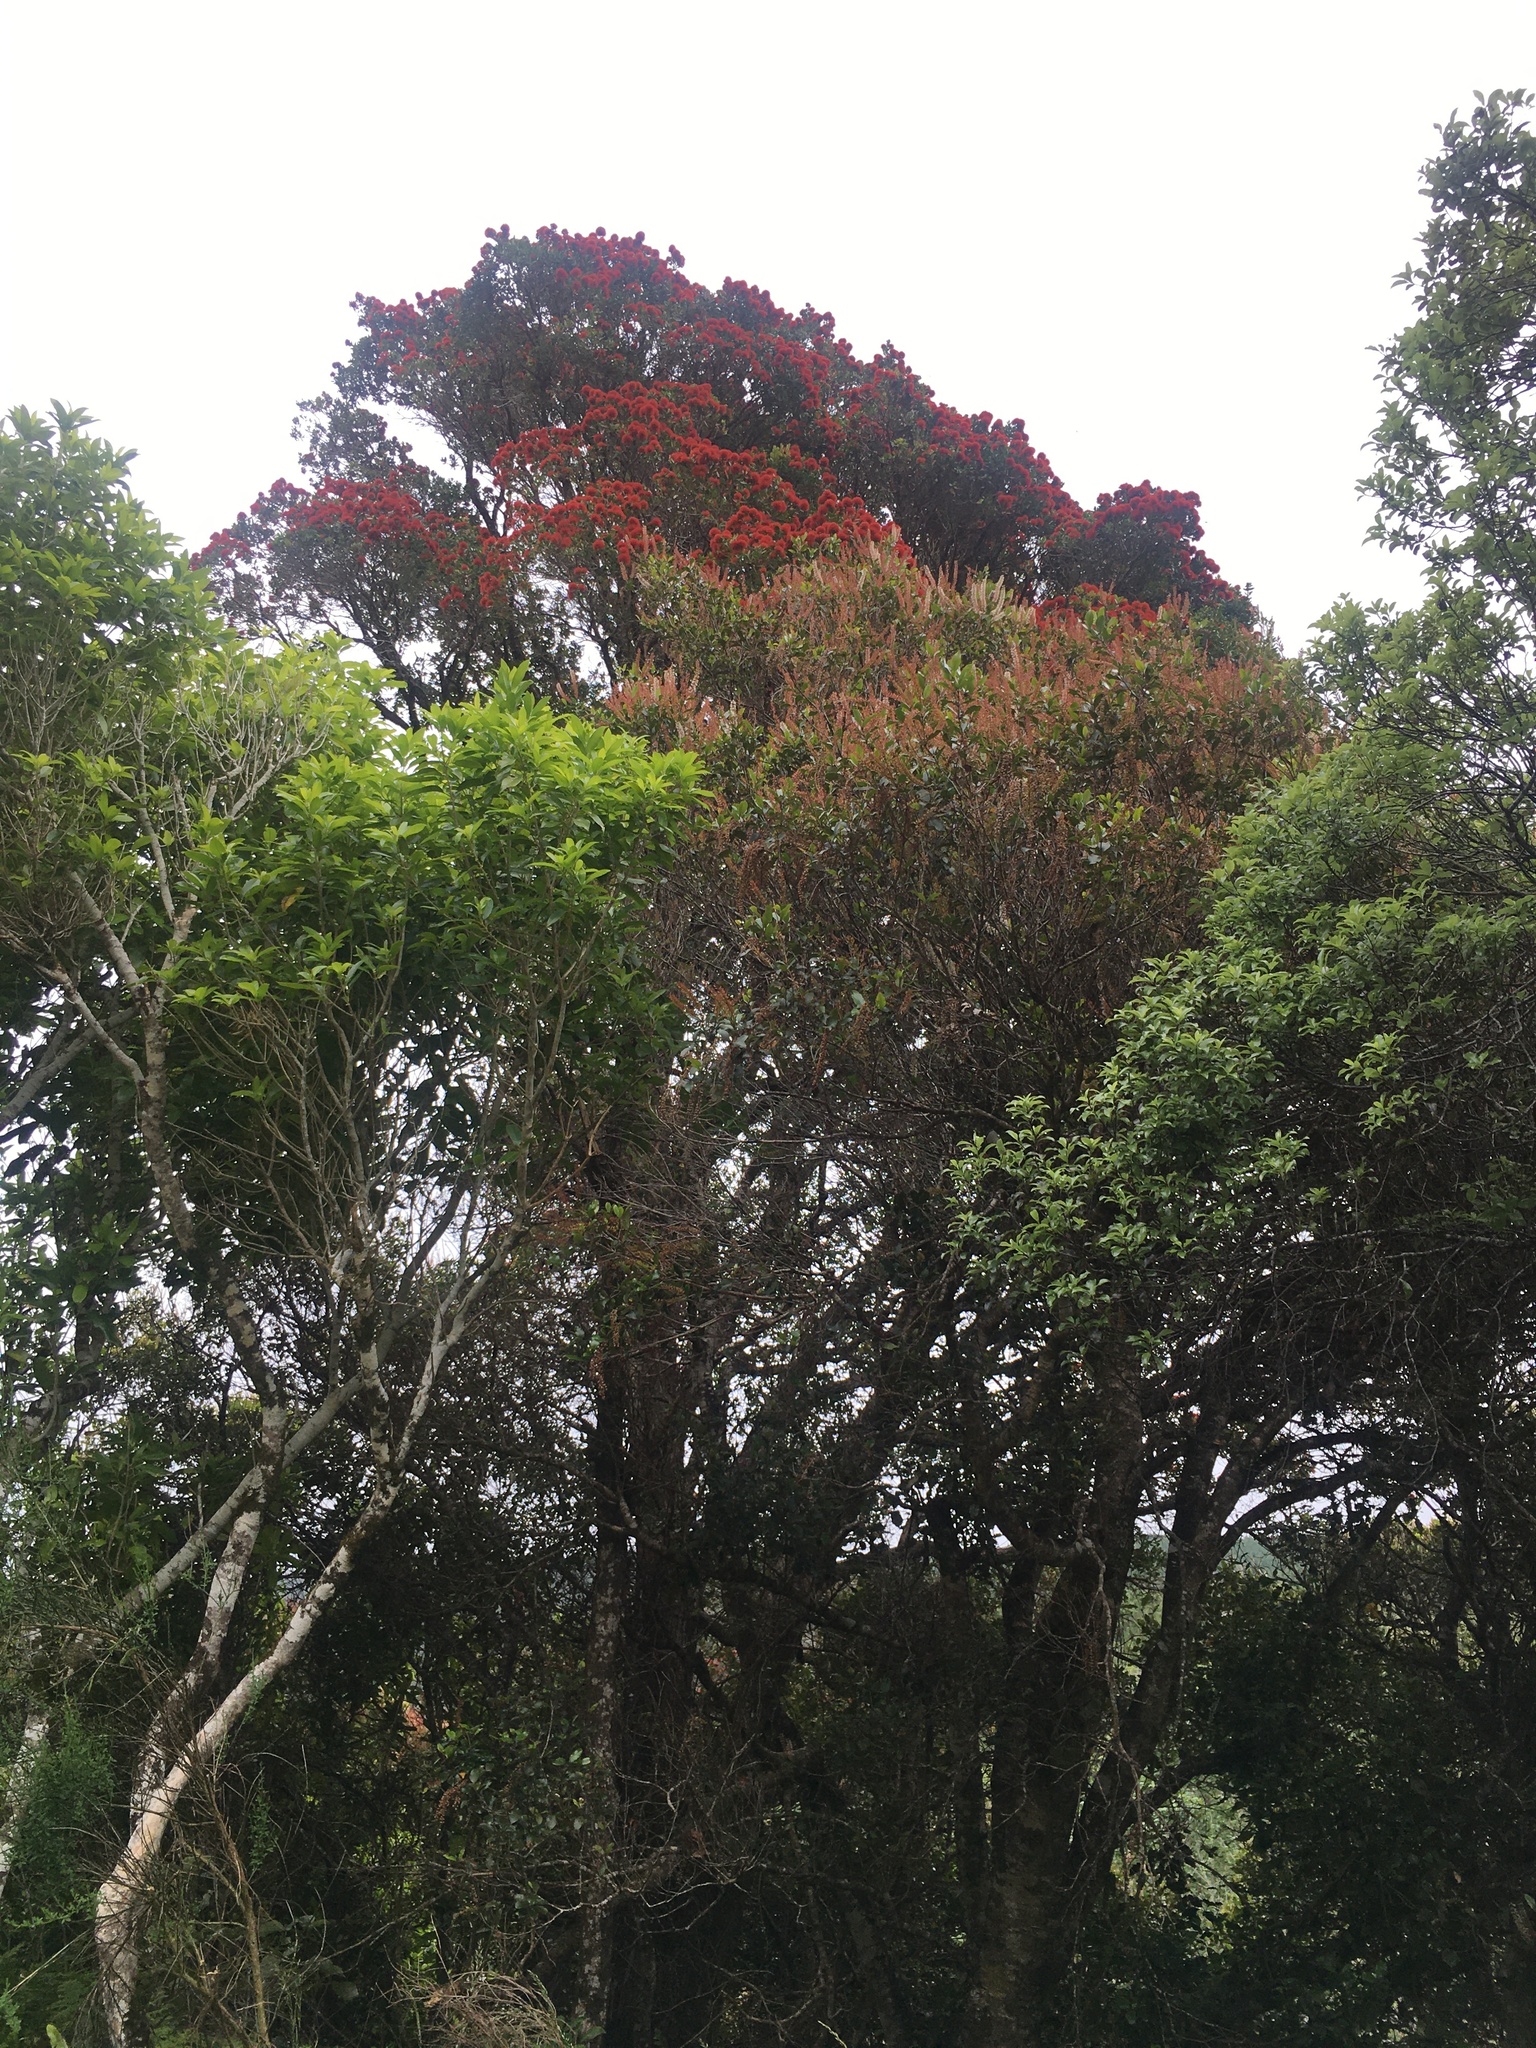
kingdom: Plantae
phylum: Tracheophyta
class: Magnoliopsida
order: Myrtales
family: Myrtaceae
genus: Metrosideros
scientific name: Metrosideros robusta
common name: Northern rata
